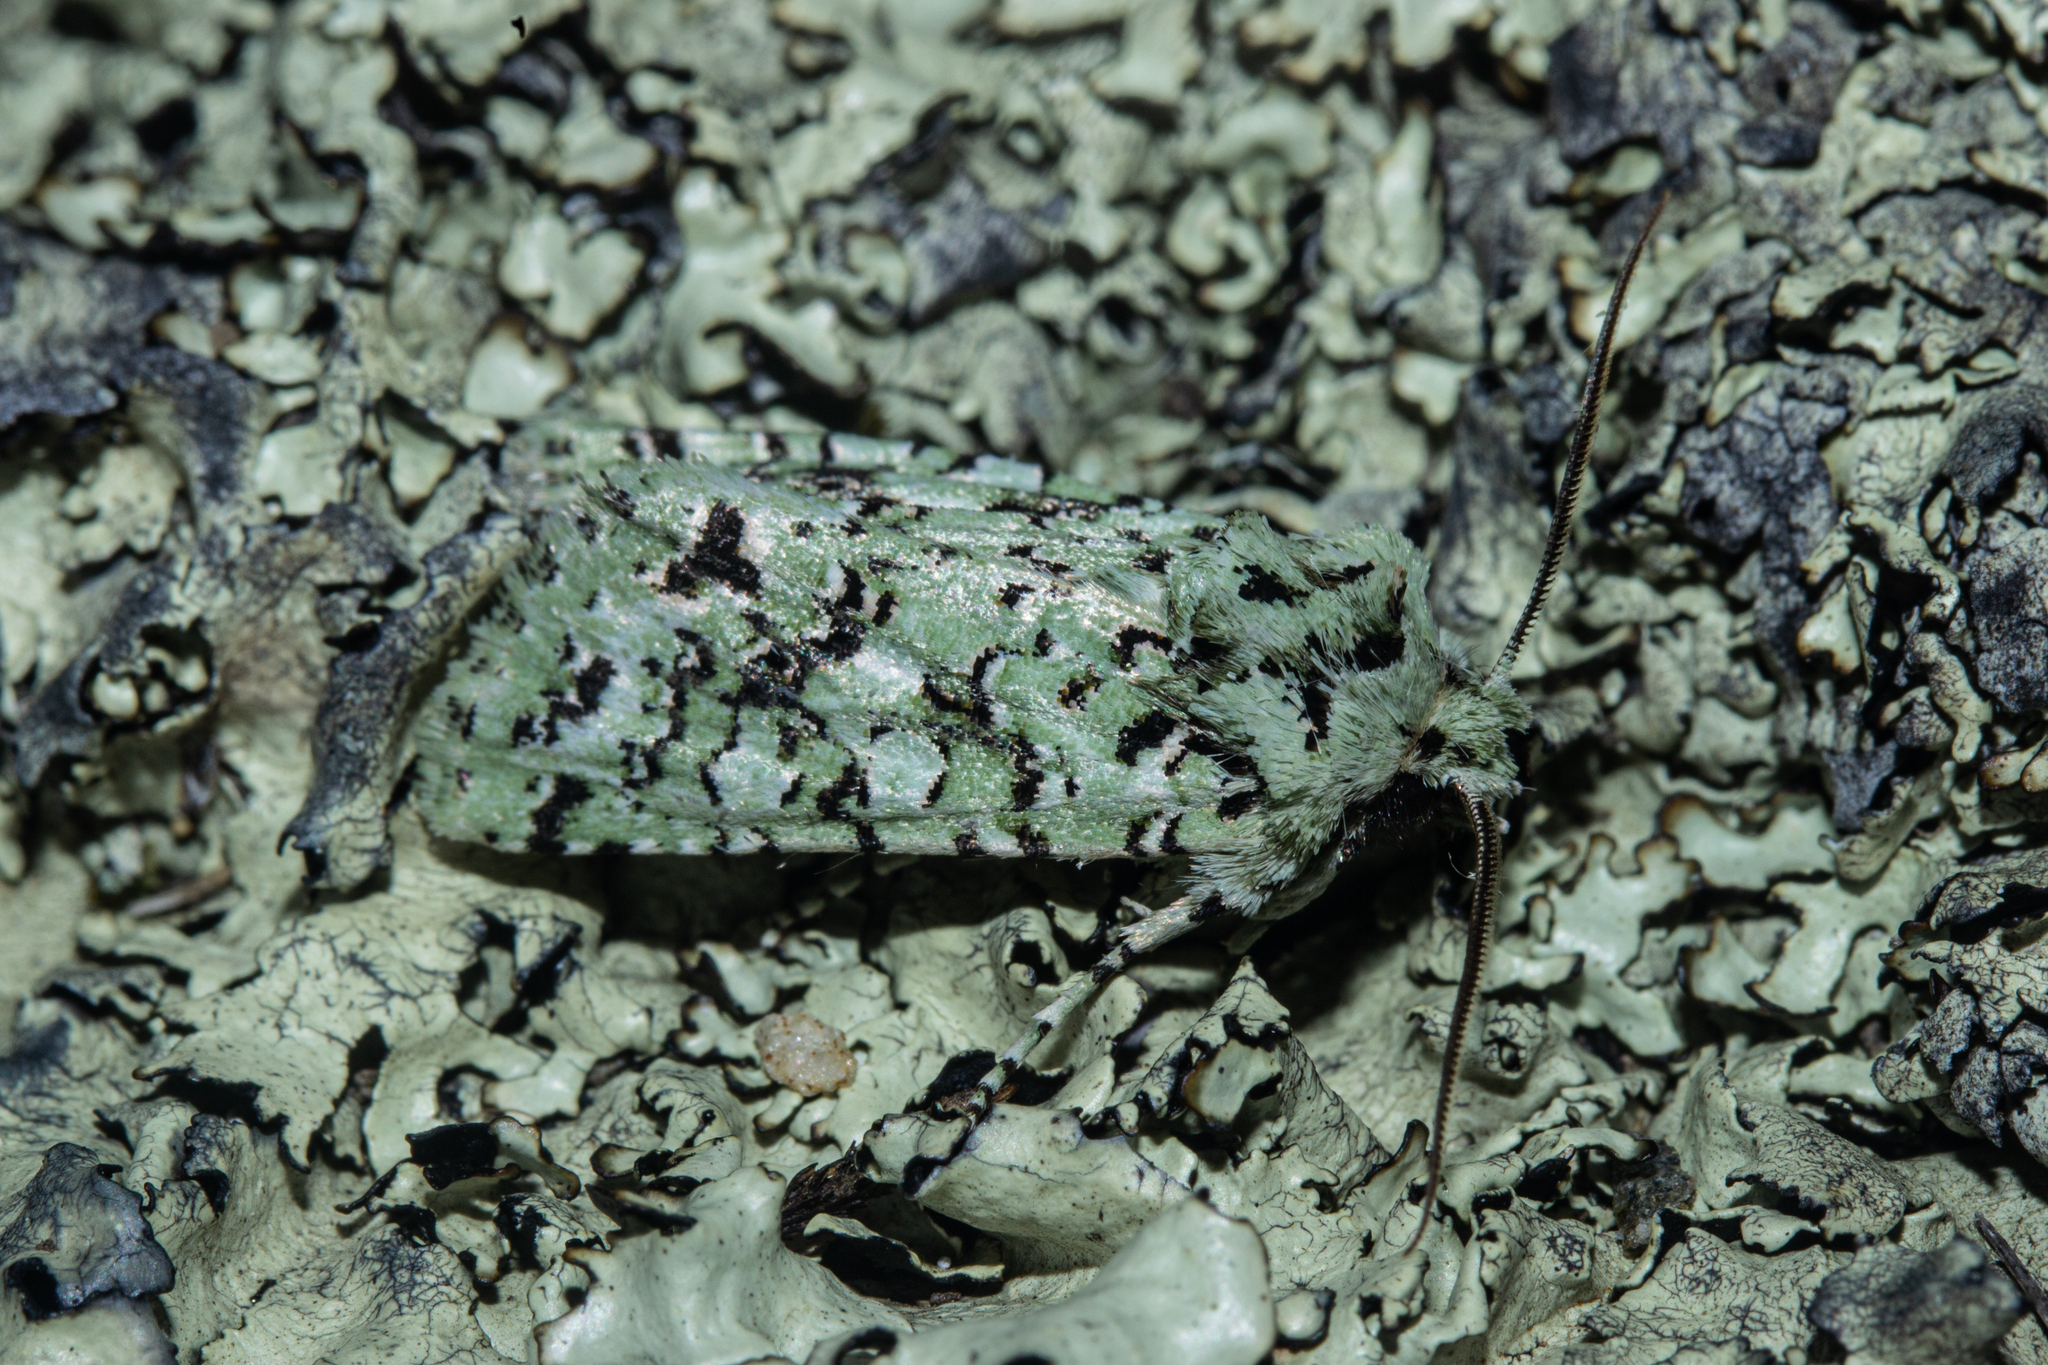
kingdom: Animalia
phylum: Arthropoda
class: Insecta
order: Lepidoptera
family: Noctuidae
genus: Meterana
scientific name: Meterana
